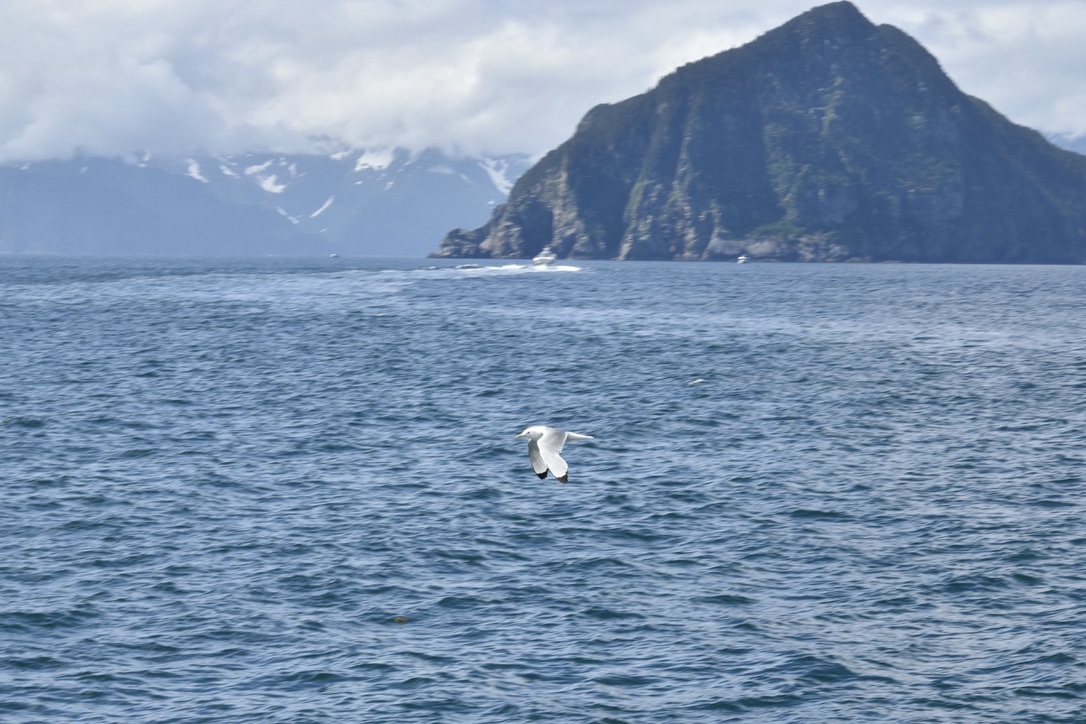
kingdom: Animalia
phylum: Chordata
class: Aves
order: Charadriiformes
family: Laridae
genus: Rissa
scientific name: Rissa tridactyla
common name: Black-legged kittiwake
